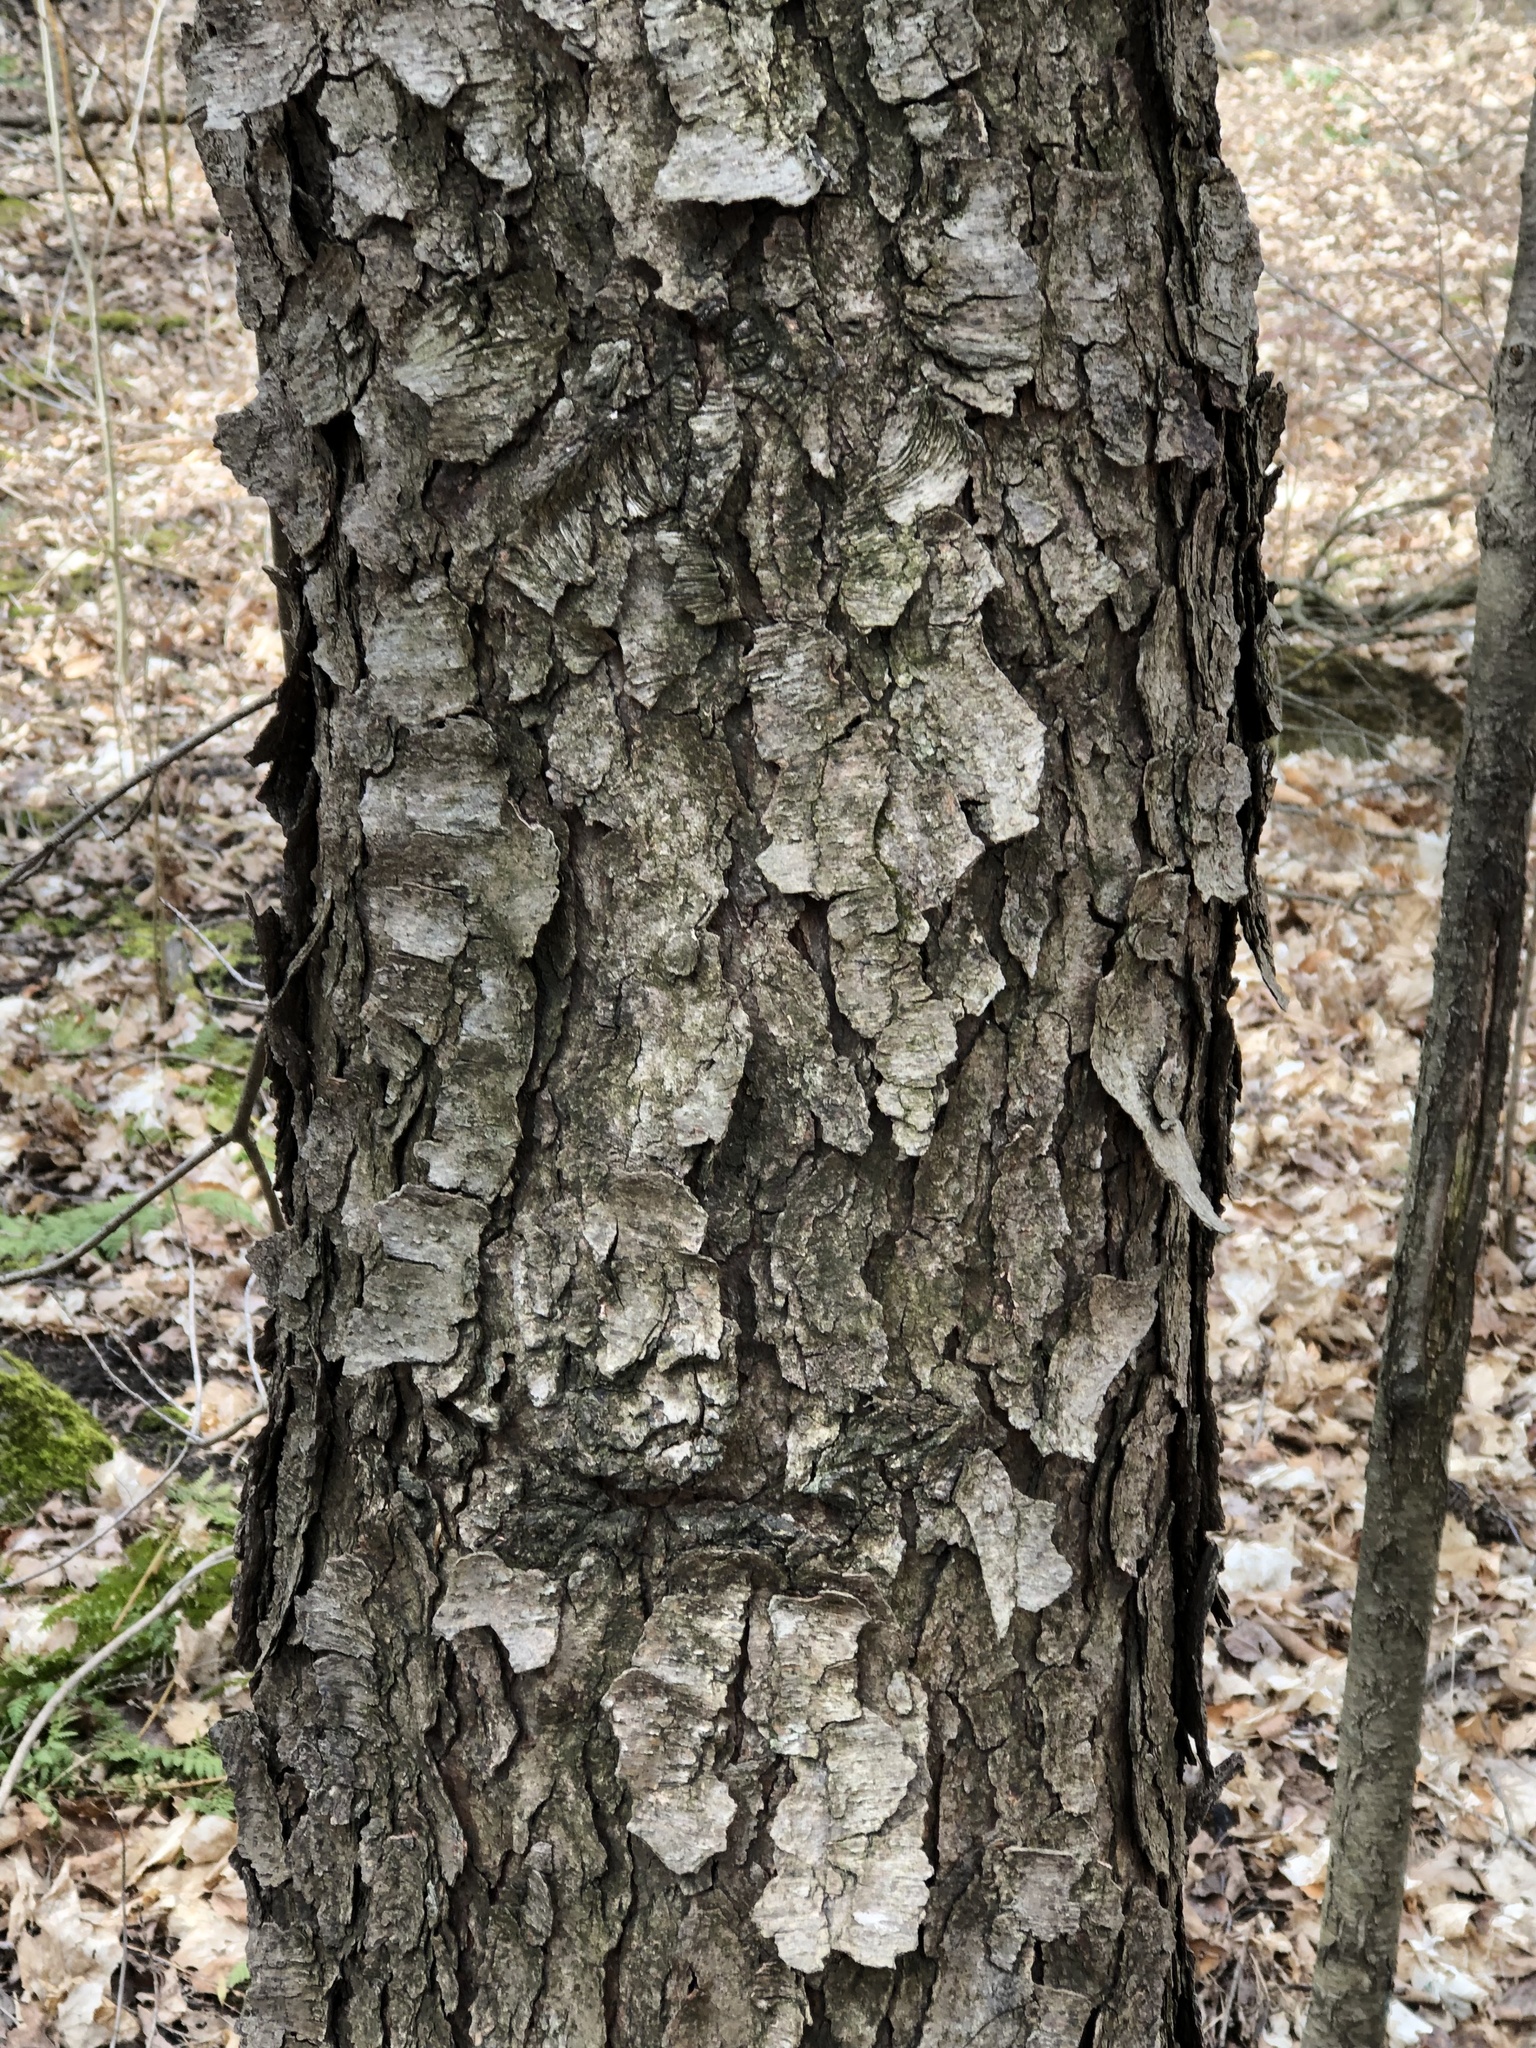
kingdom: Plantae
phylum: Tracheophyta
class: Magnoliopsida
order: Rosales
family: Rosaceae
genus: Prunus
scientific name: Prunus serotina
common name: Black cherry
